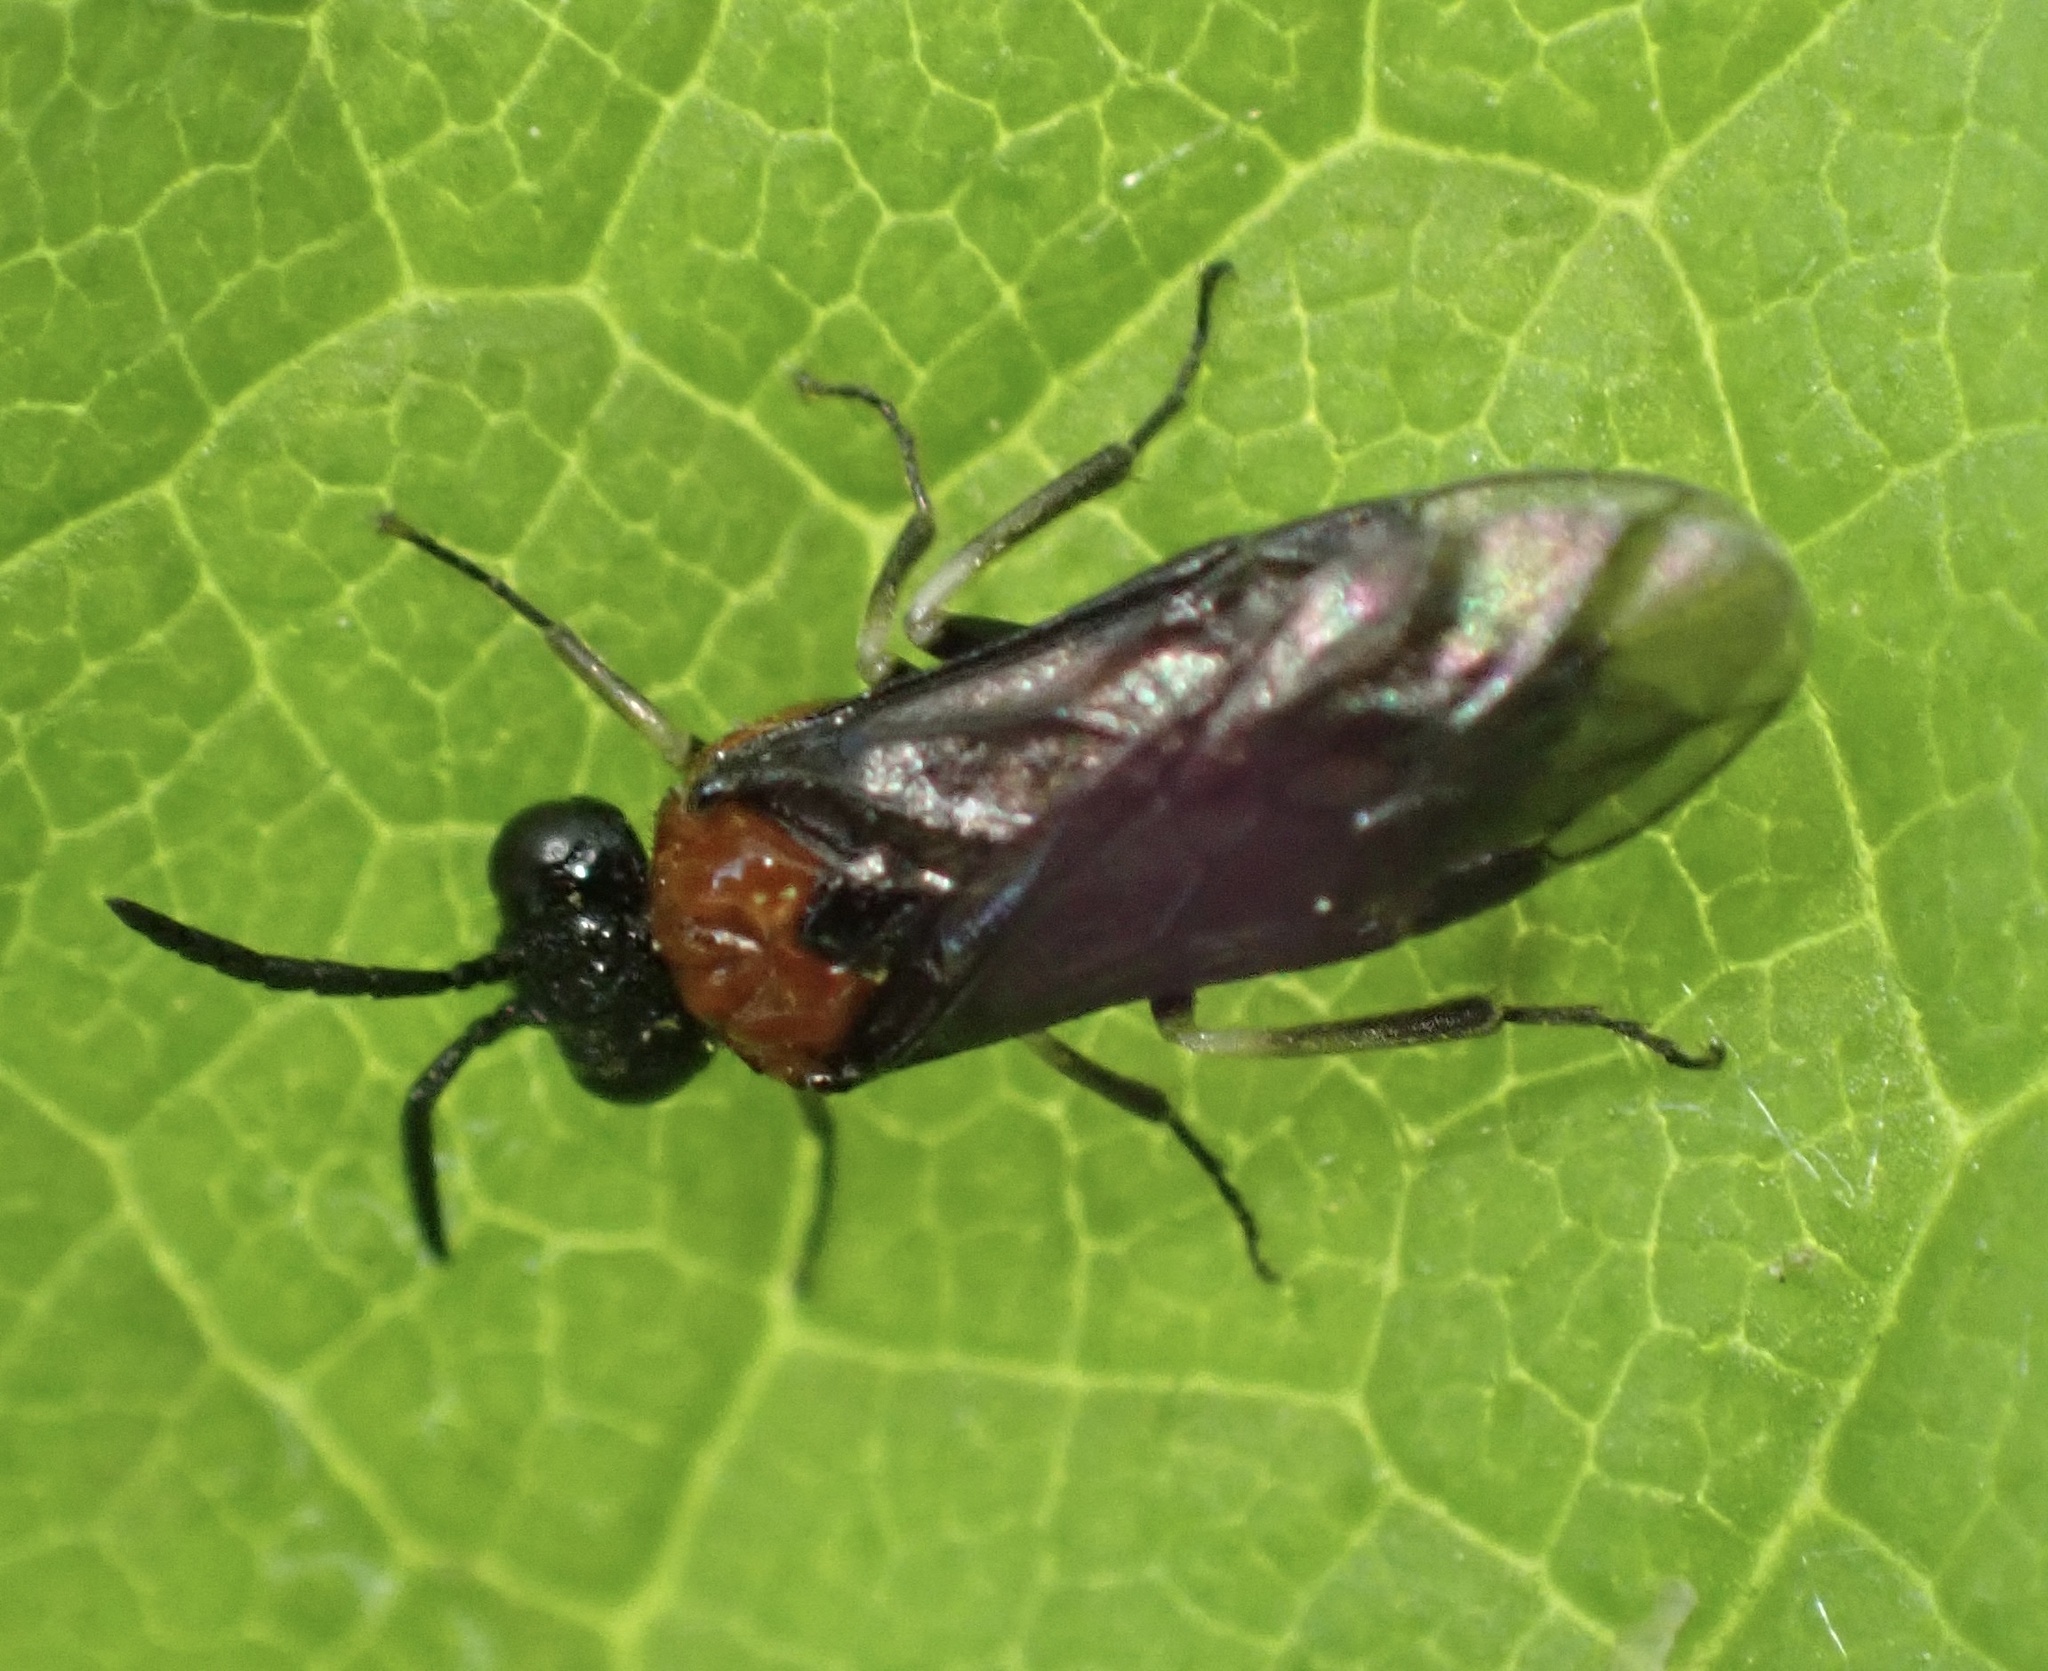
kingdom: Animalia
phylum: Arthropoda
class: Insecta
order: Hymenoptera
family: Tenthredinidae
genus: Eutomostethus
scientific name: Eutomostethus ephippium
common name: Tenthredid wasp
